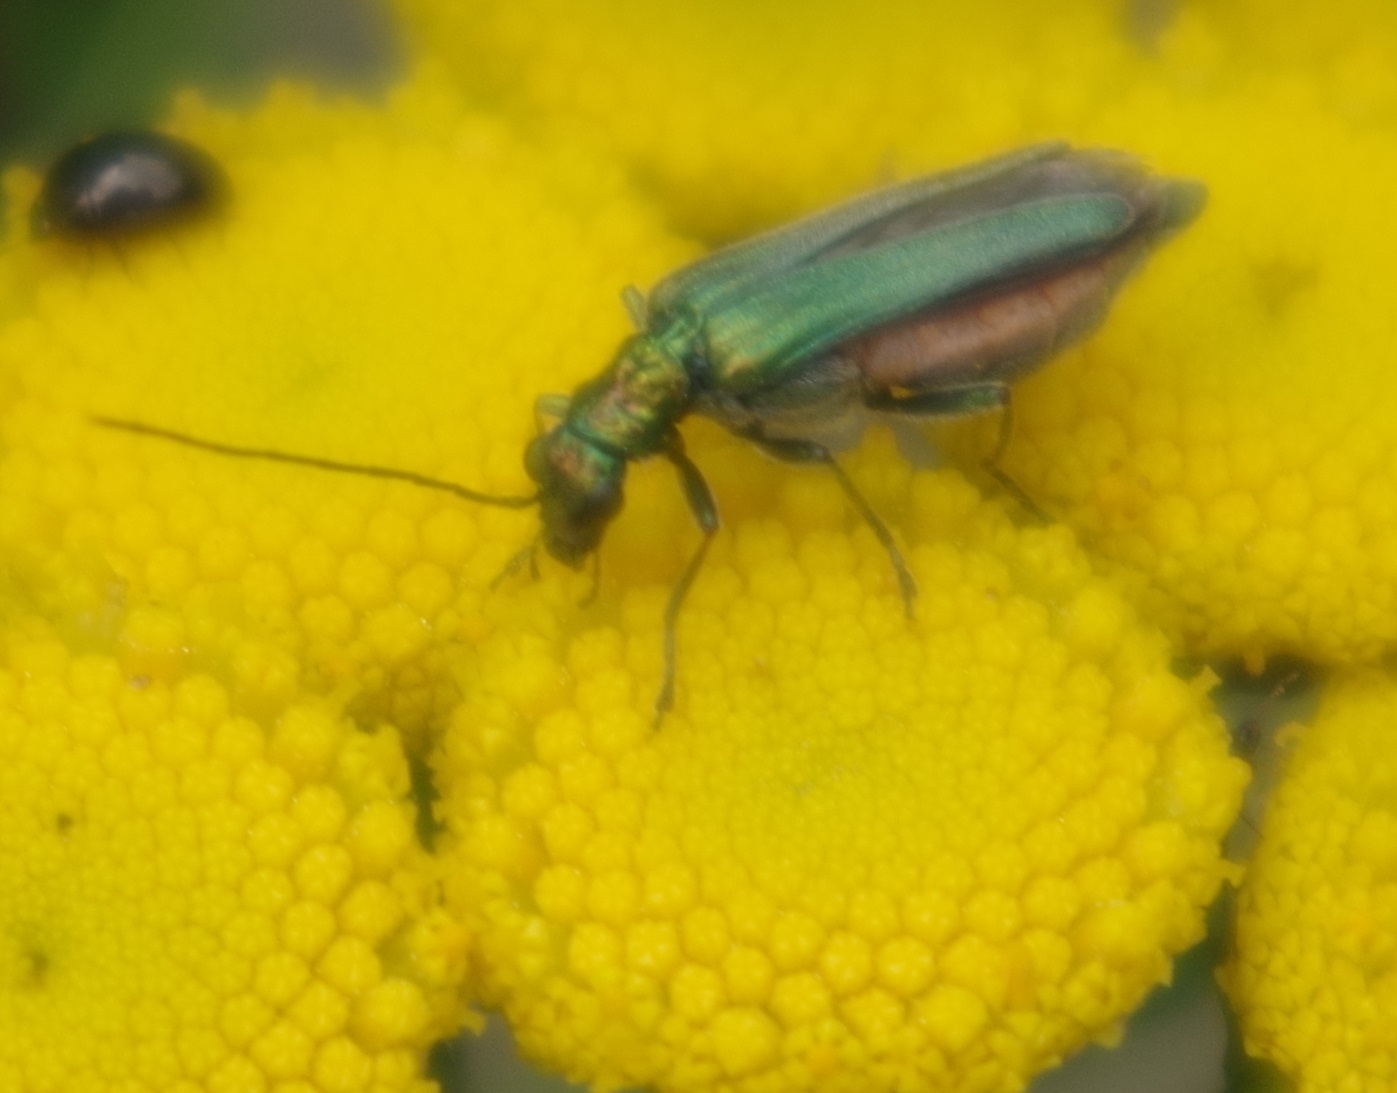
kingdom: Animalia
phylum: Arthropoda
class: Insecta
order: Coleoptera
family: Oedemeridae
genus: Oedemera
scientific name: Oedemera nobilis
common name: Swollen-thighed beetle
